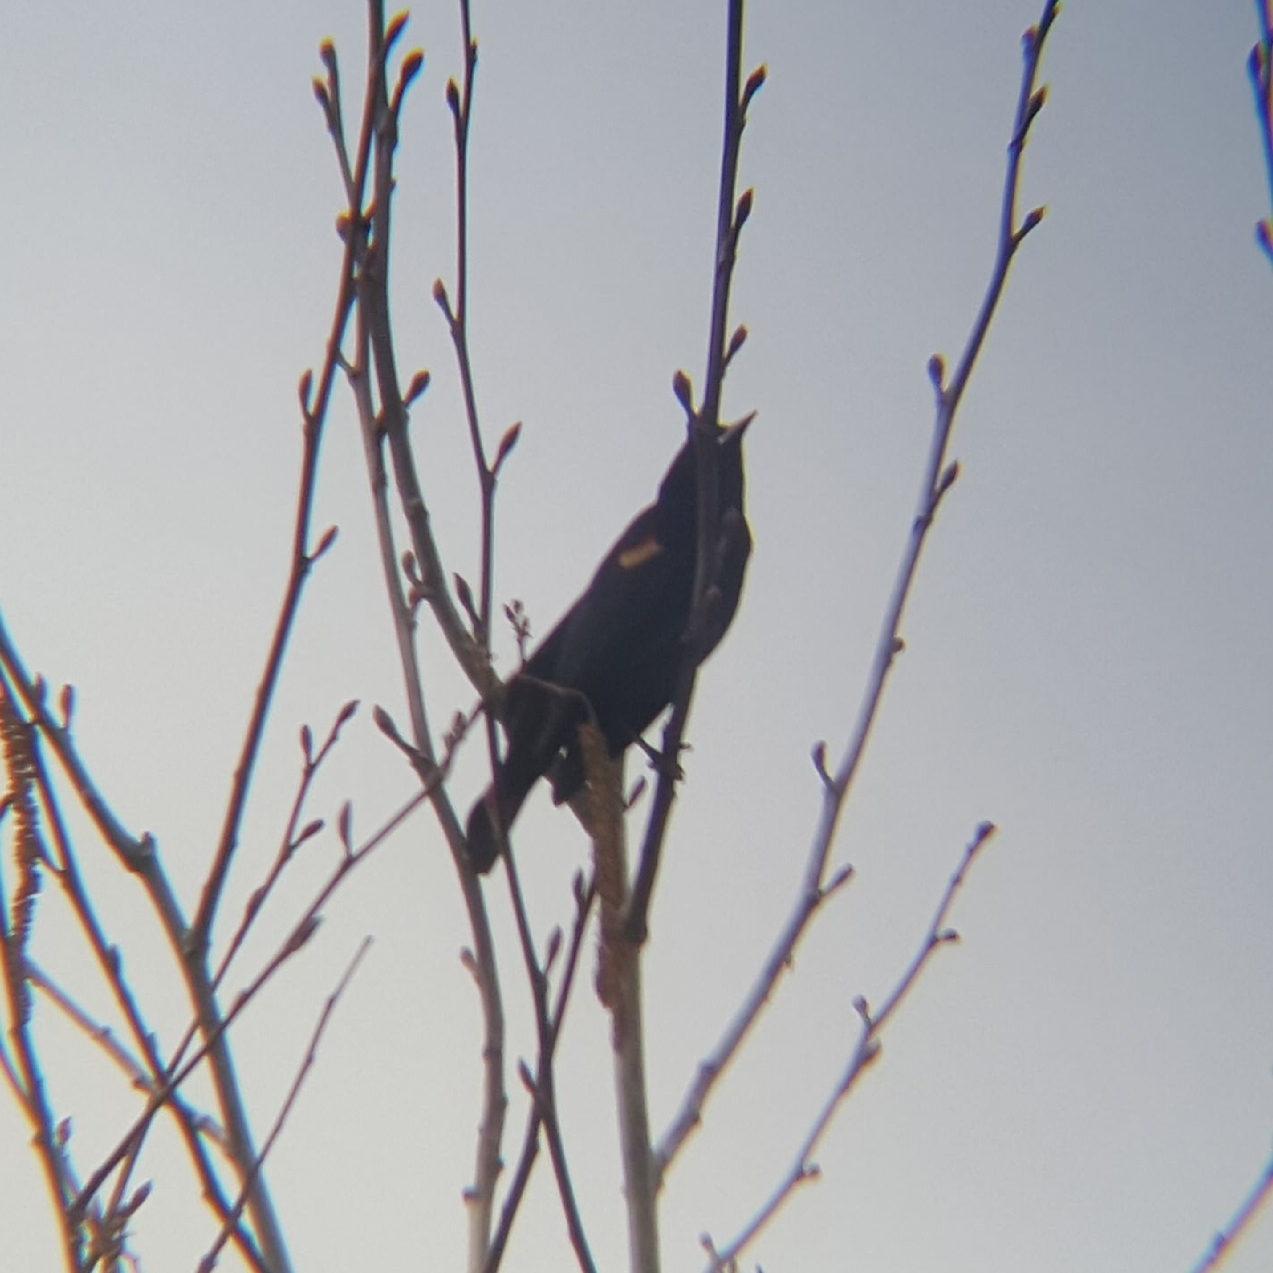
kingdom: Animalia
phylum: Chordata
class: Aves
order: Passeriformes
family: Icteridae
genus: Agelaius
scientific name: Agelaius phoeniceus
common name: Red-winged blackbird
